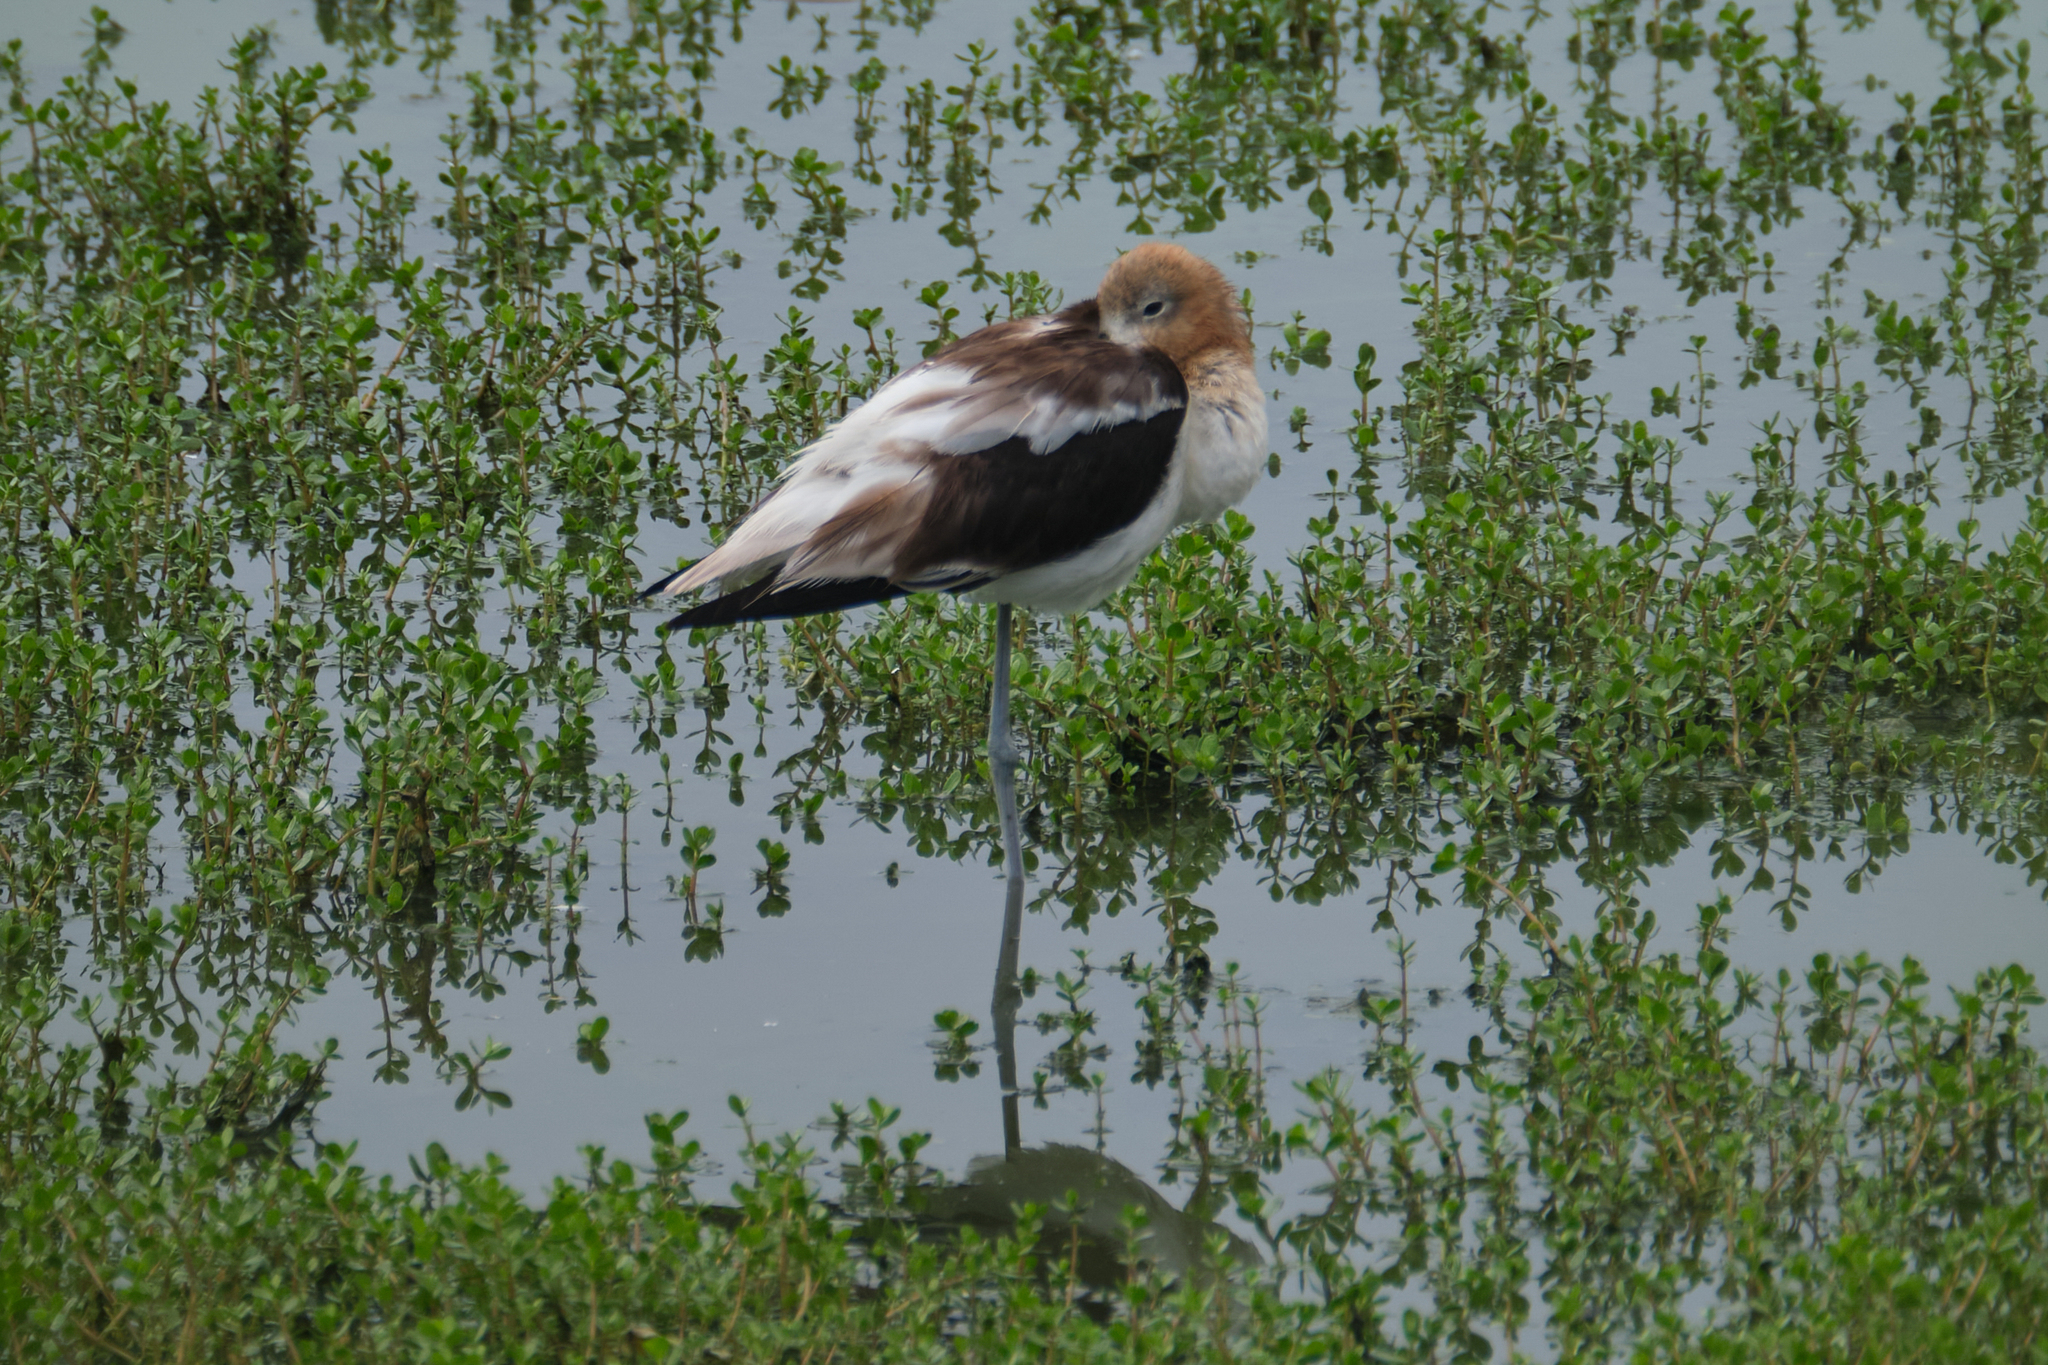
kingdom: Animalia
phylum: Chordata
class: Aves
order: Charadriiformes
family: Recurvirostridae
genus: Recurvirostra
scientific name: Recurvirostra americana
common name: American avocet
